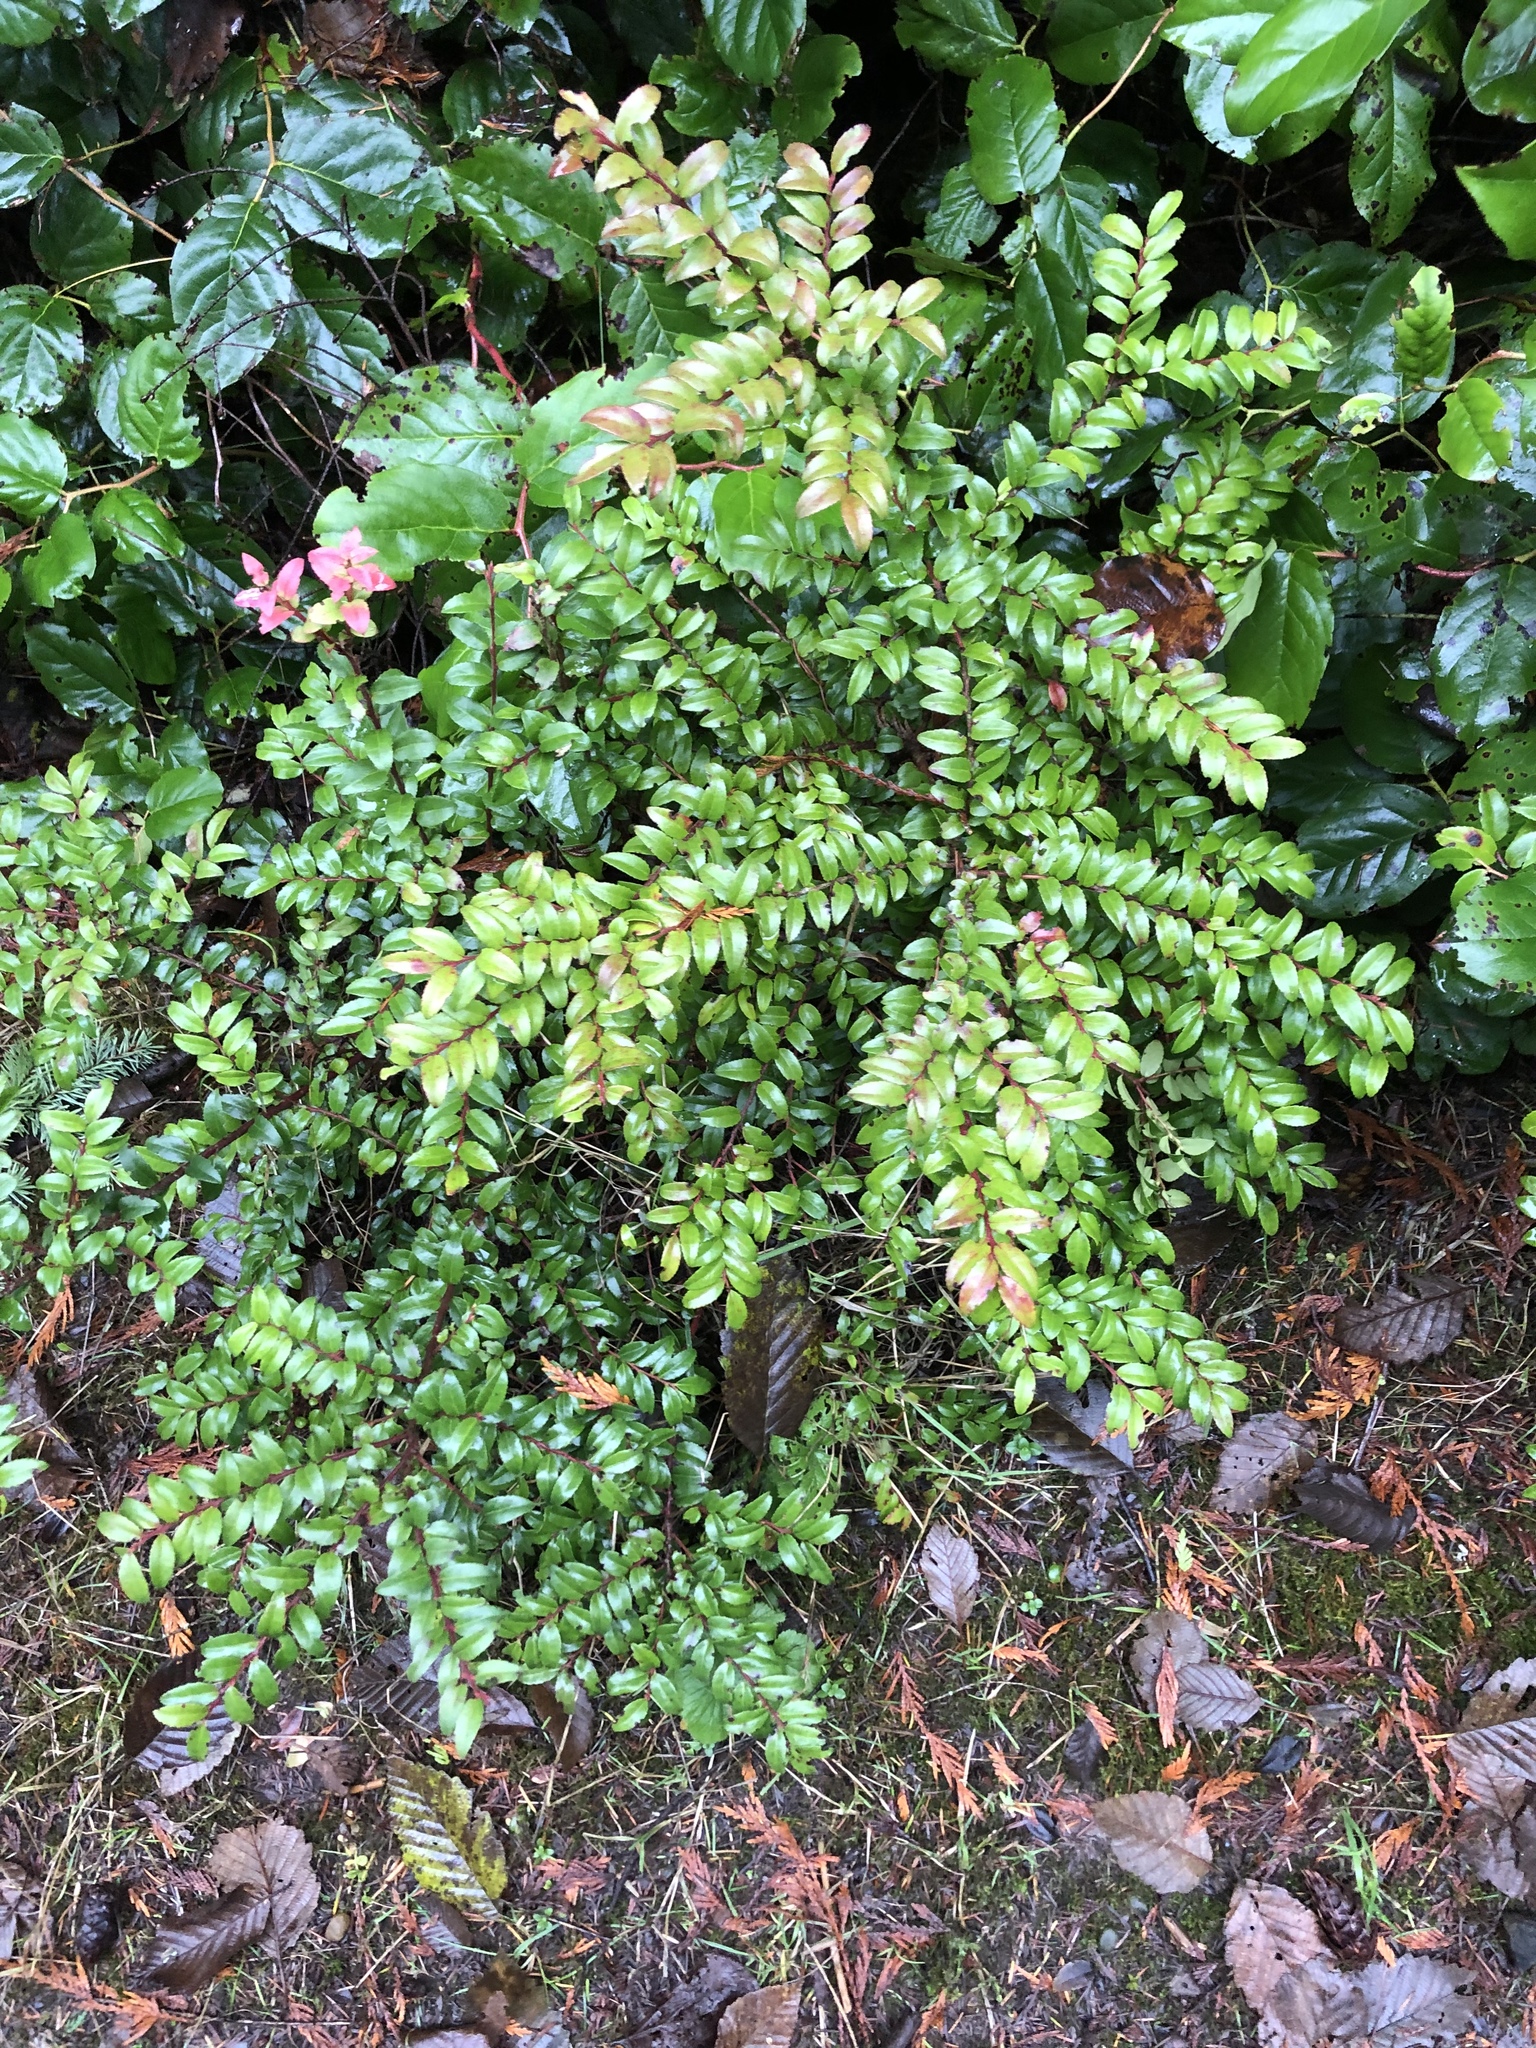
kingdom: Plantae
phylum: Tracheophyta
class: Magnoliopsida
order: Ericales
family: Ericaceae
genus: Vaccinium
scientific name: Vaccinium ovatum
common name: California-huckleberry
